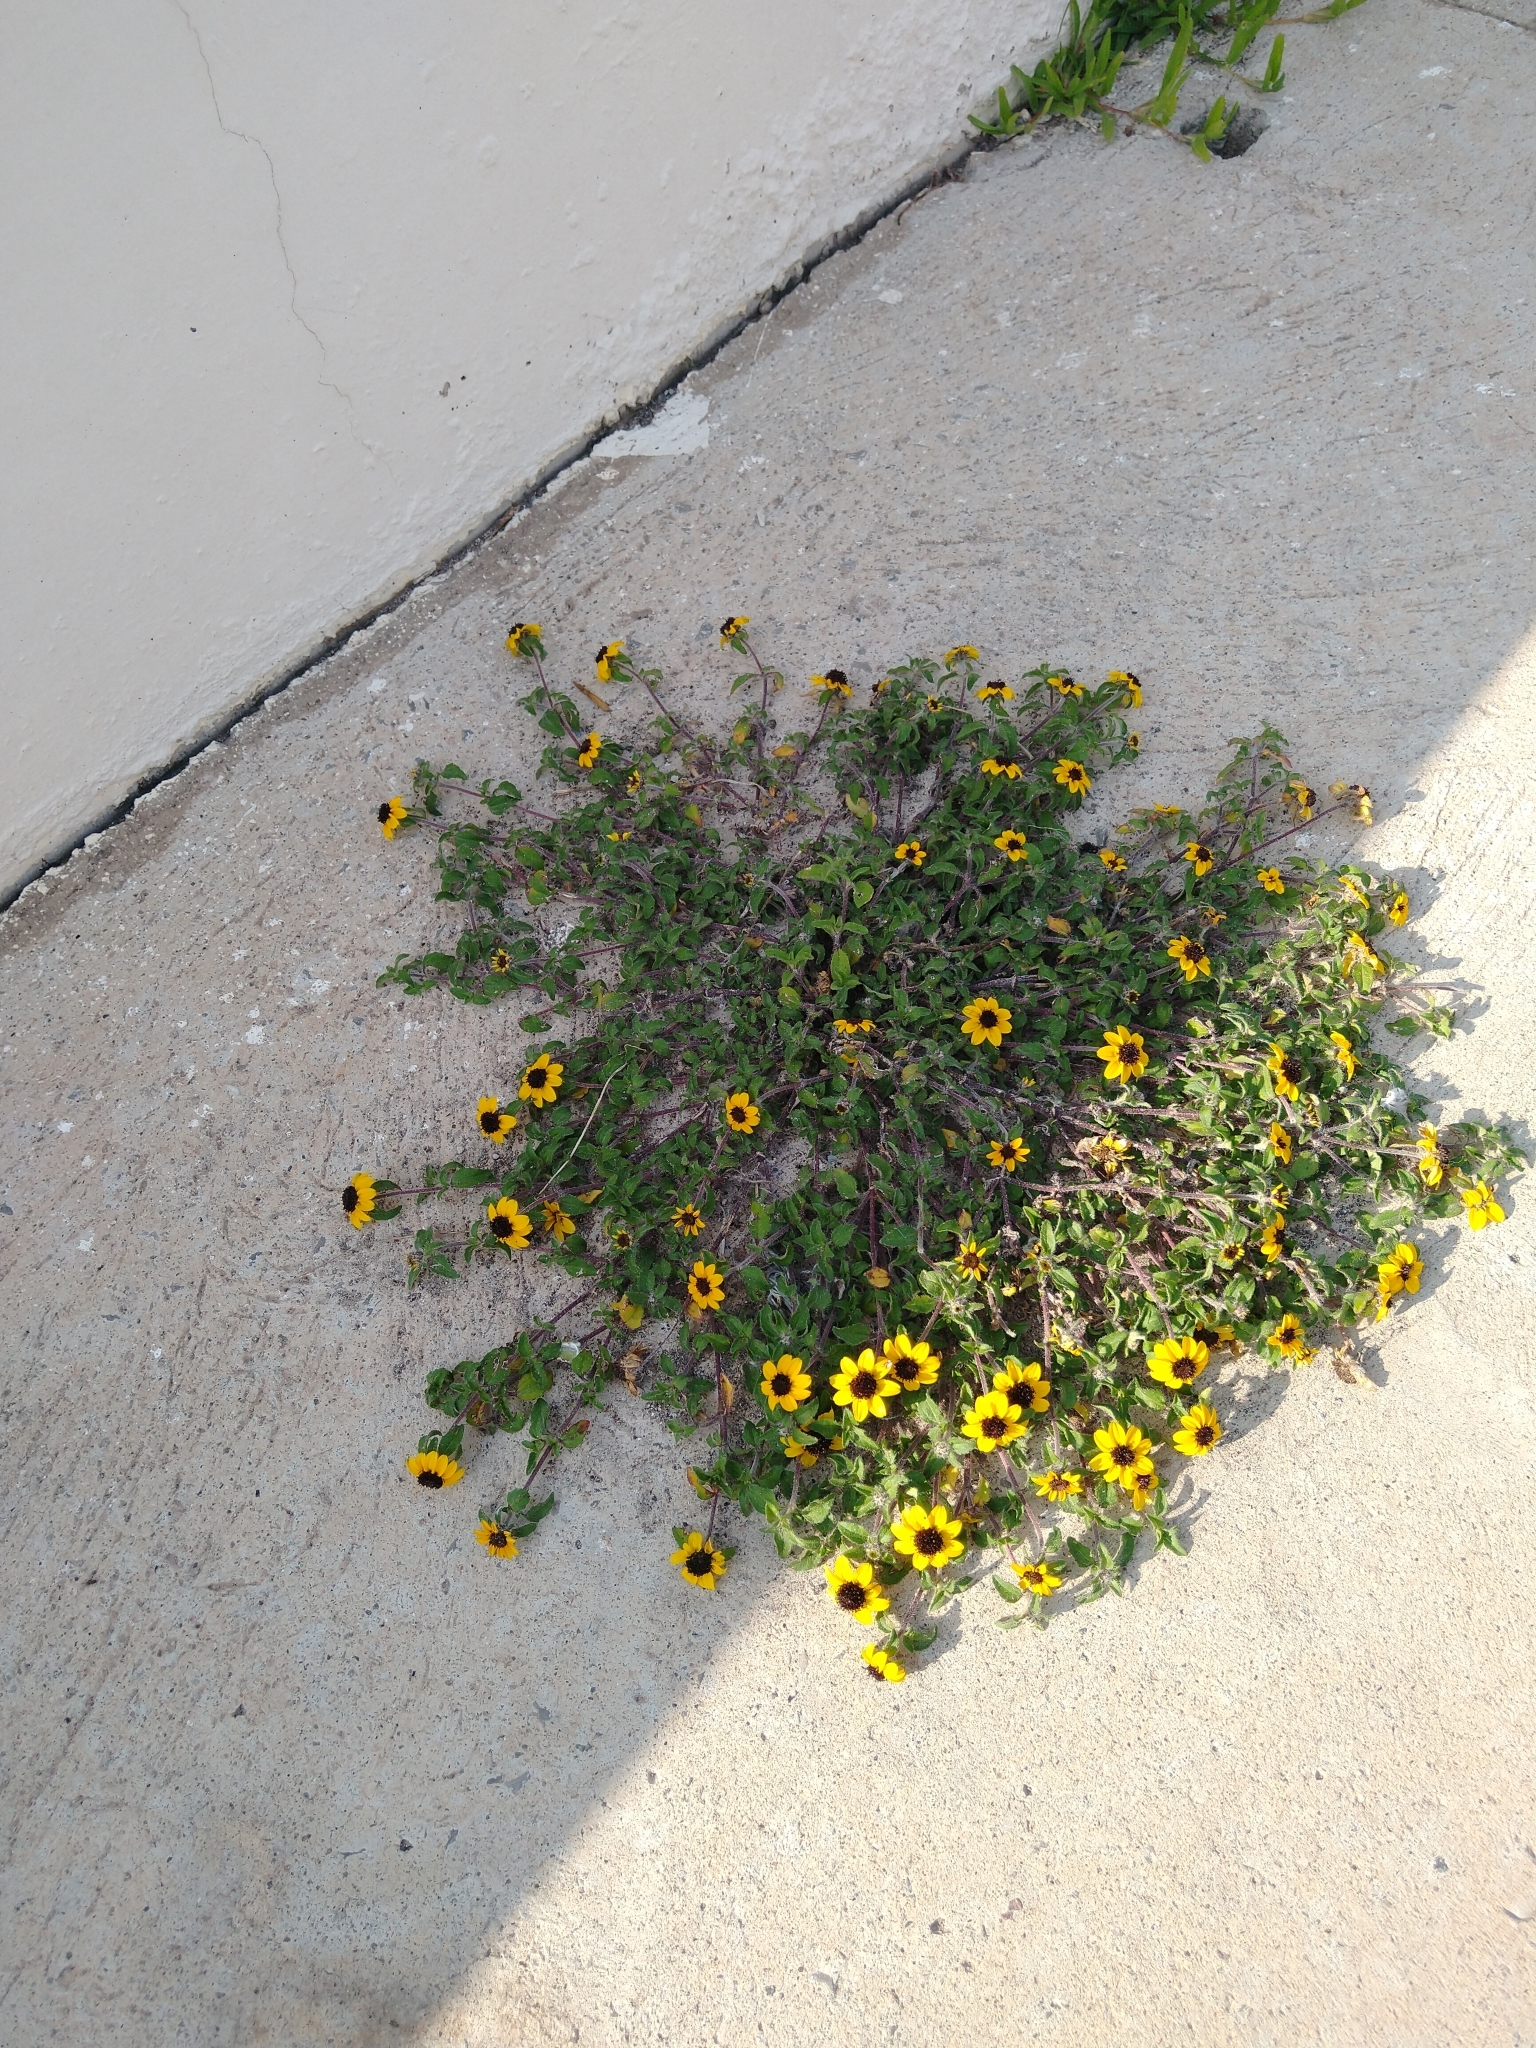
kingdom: Plantae
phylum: Tracheophyta
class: Magnoliopsida
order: Asterales
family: Asteraceae
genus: Sanvitalia
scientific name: Sanvitalia procumbens
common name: Mexican creeping zinnia
